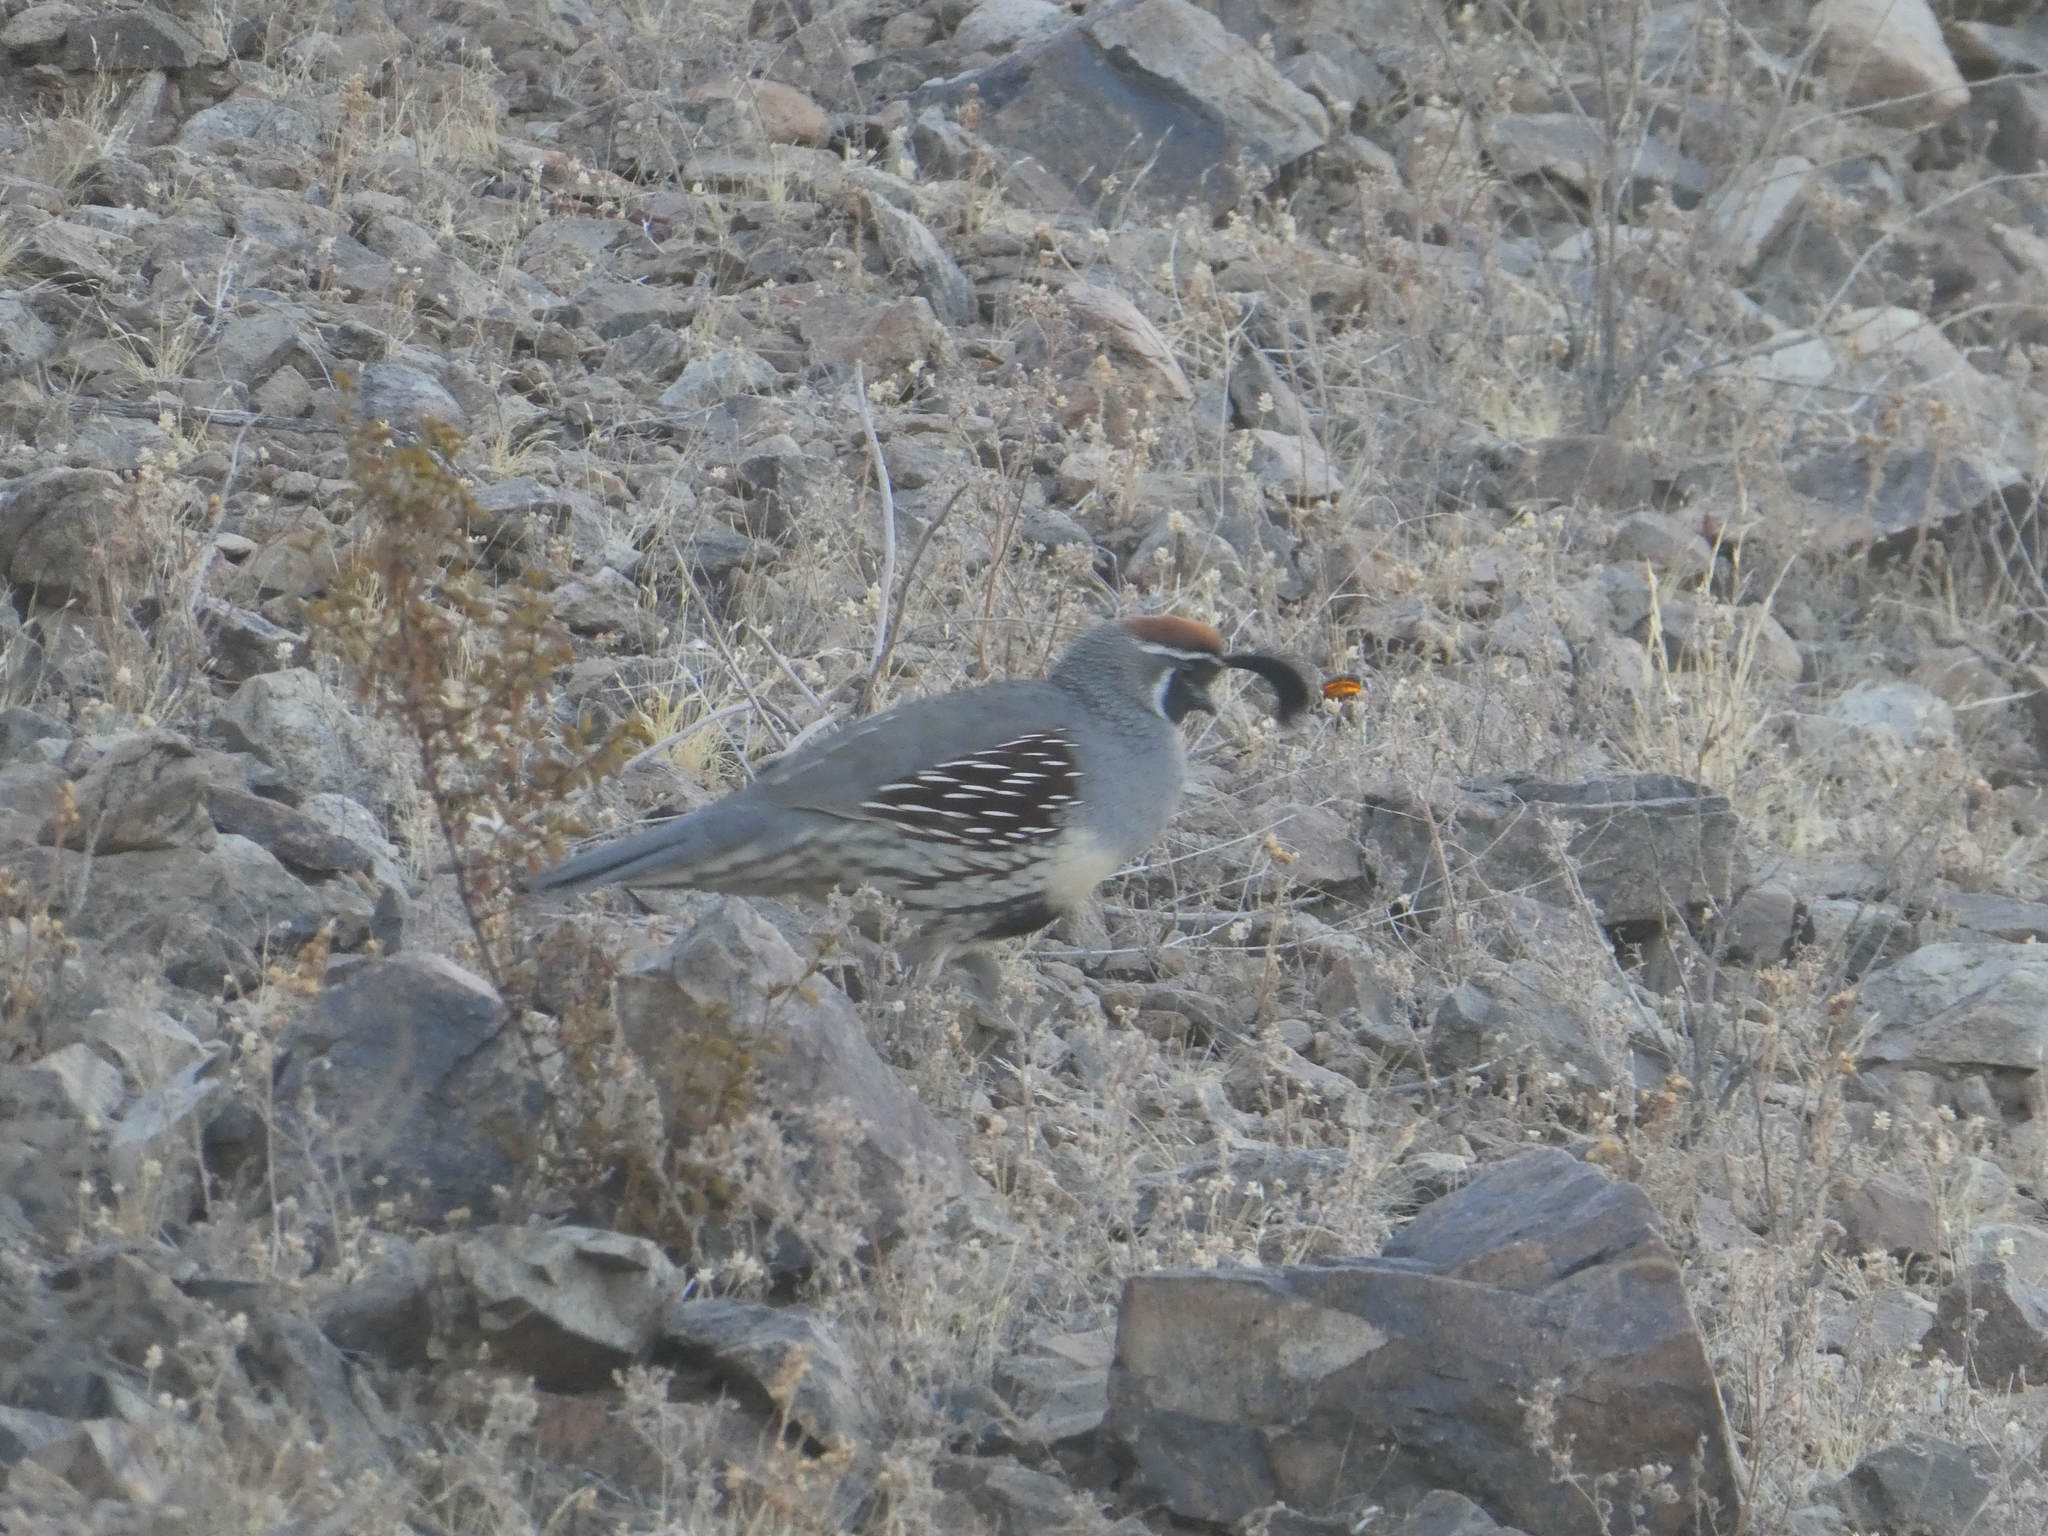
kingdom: Animalia
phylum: Chordata
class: Aves
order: Galliformes
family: Odontophoridae
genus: Callipepla
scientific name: Callipepla gambelii
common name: Gambel's quail
